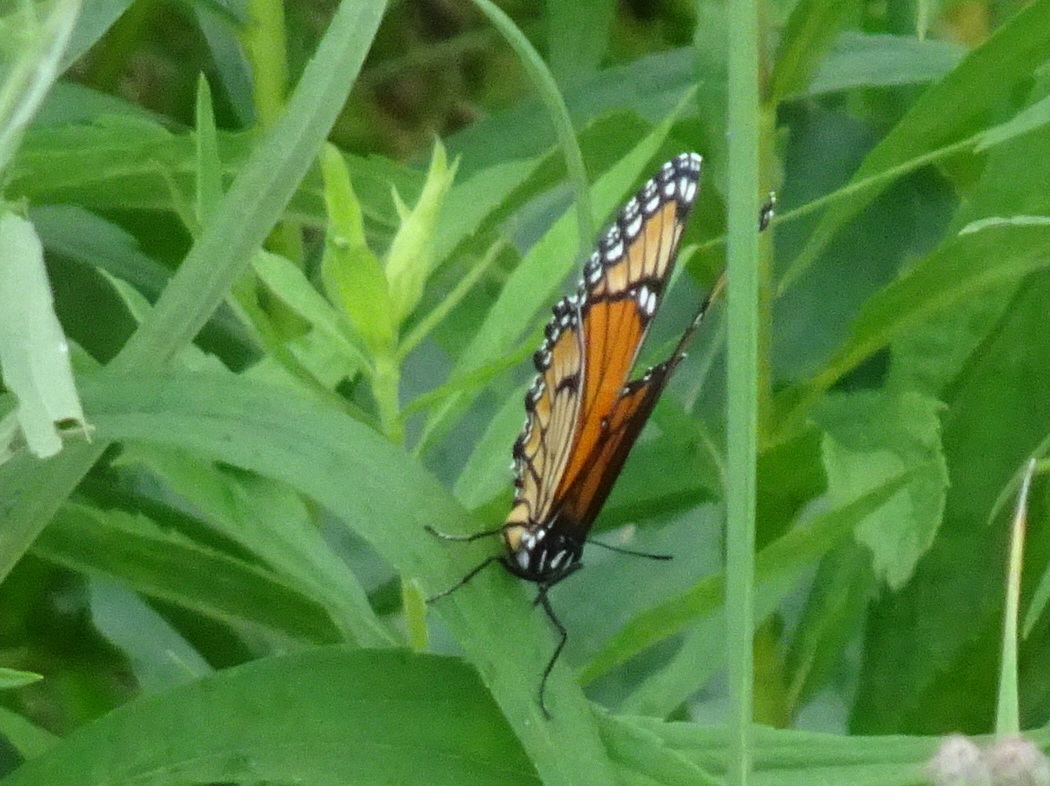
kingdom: Animalia
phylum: Arthropoda
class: Insecta
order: Lepidoptera
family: Nymphalidae
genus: Limenitis
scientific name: Limenitis archippus
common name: Viceroy
